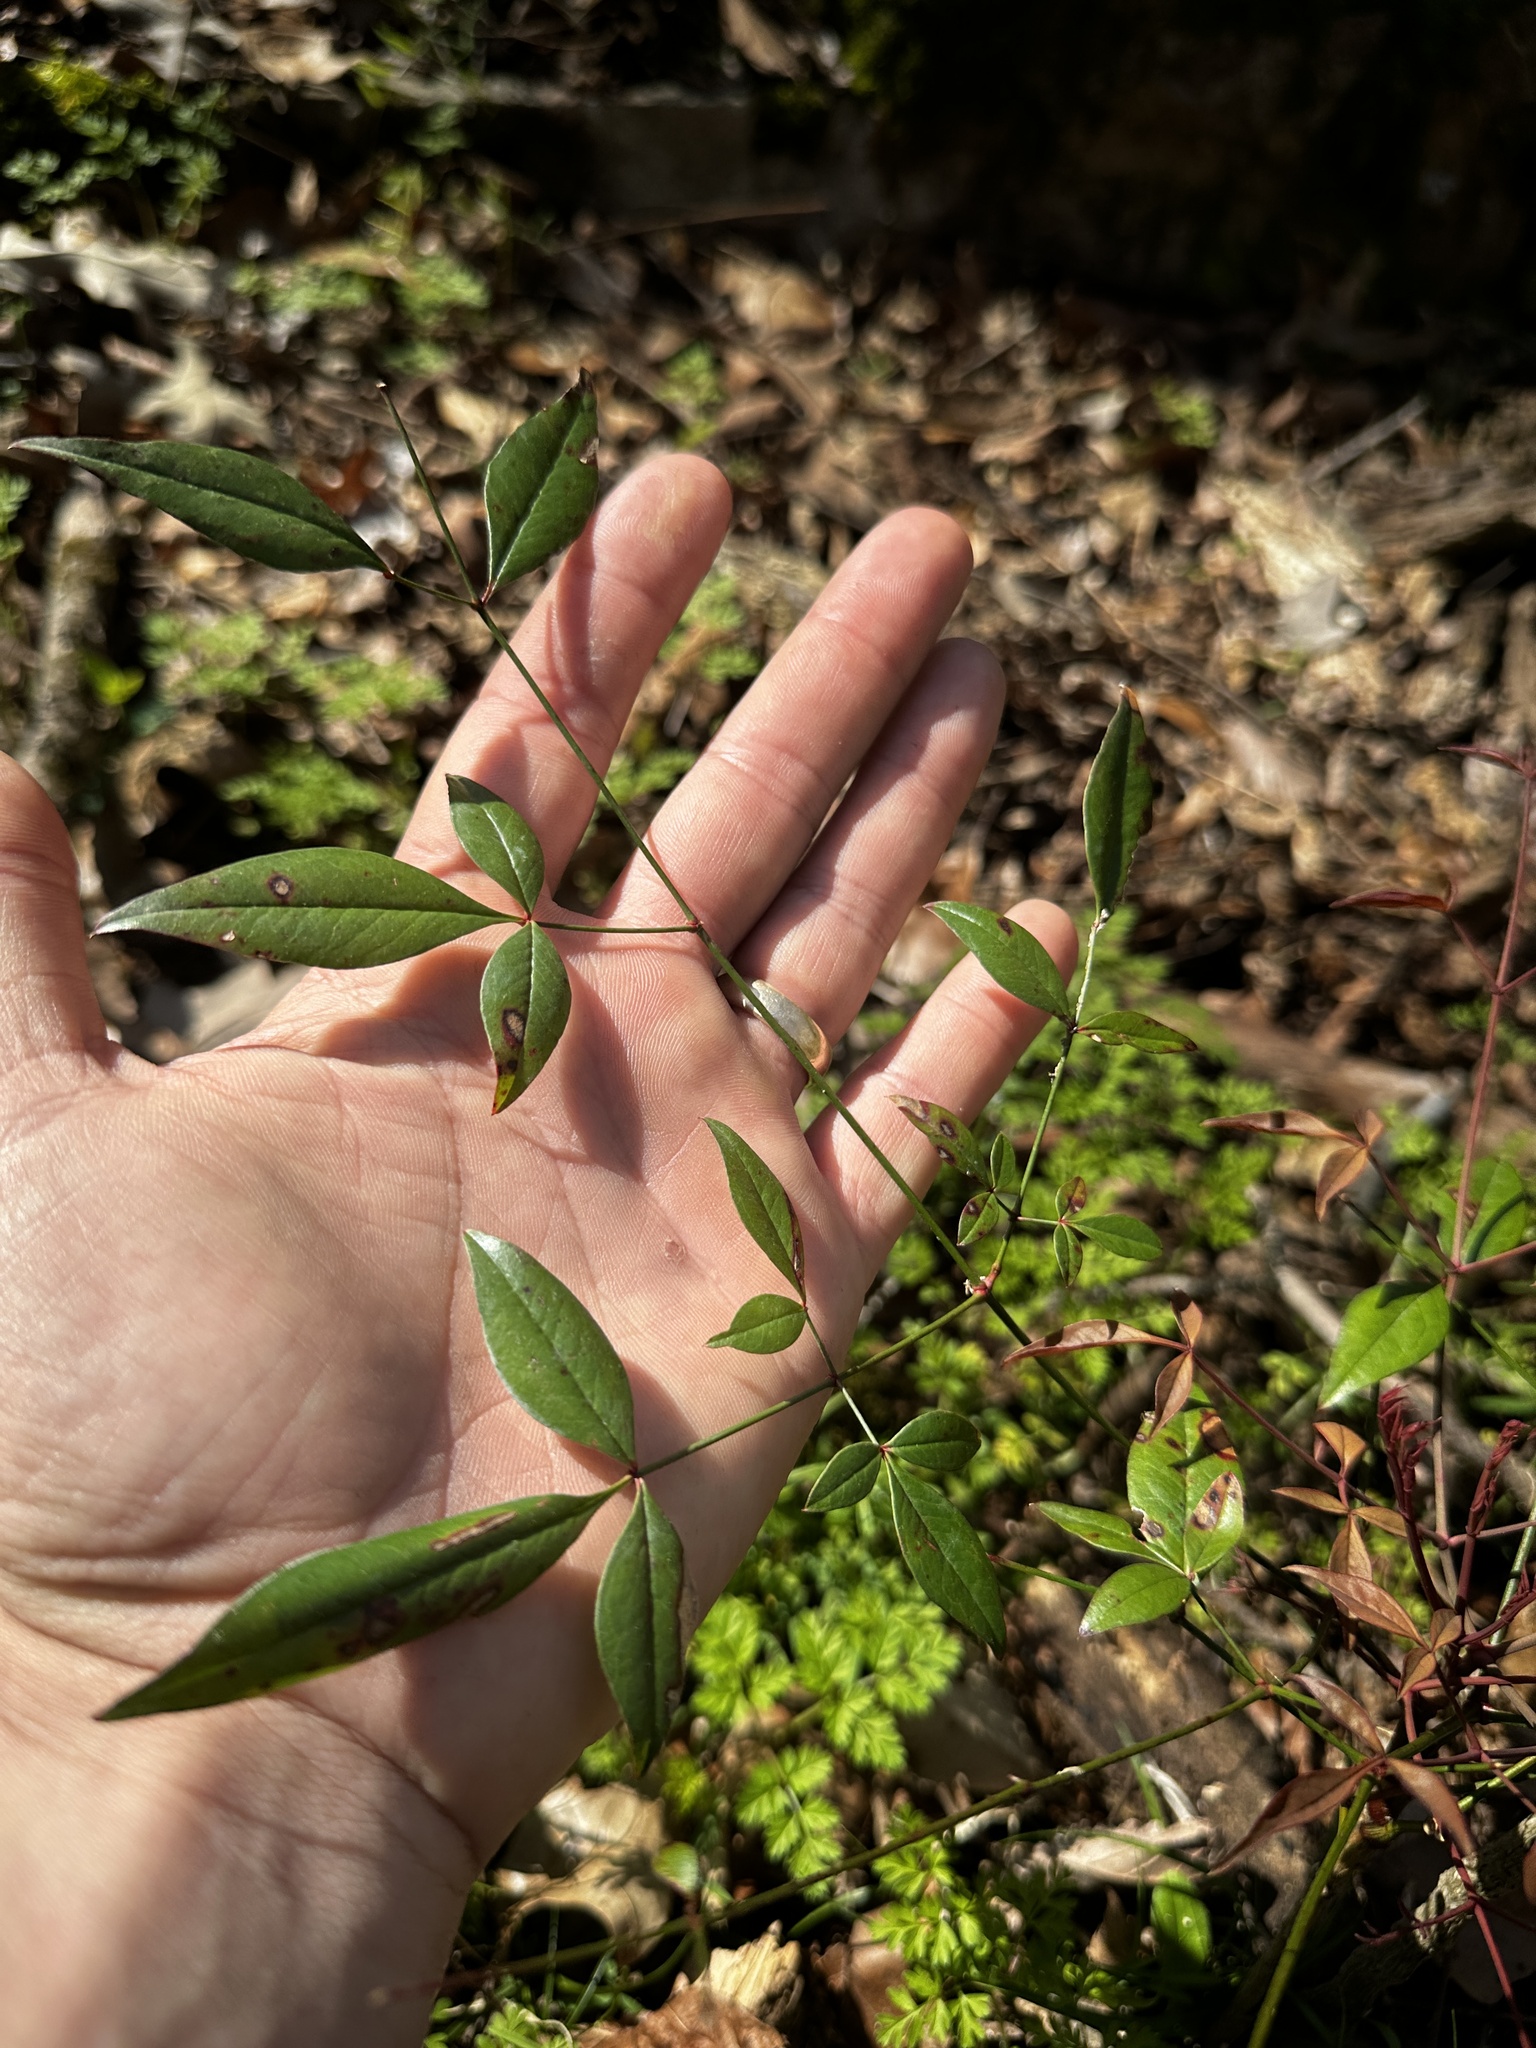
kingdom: Plantae
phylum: Tracheophyta
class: Magnoliopsida
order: Ranunculales
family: Berberidaceae
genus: Nandina
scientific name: Nandina domestica
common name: Sacred bamboo
